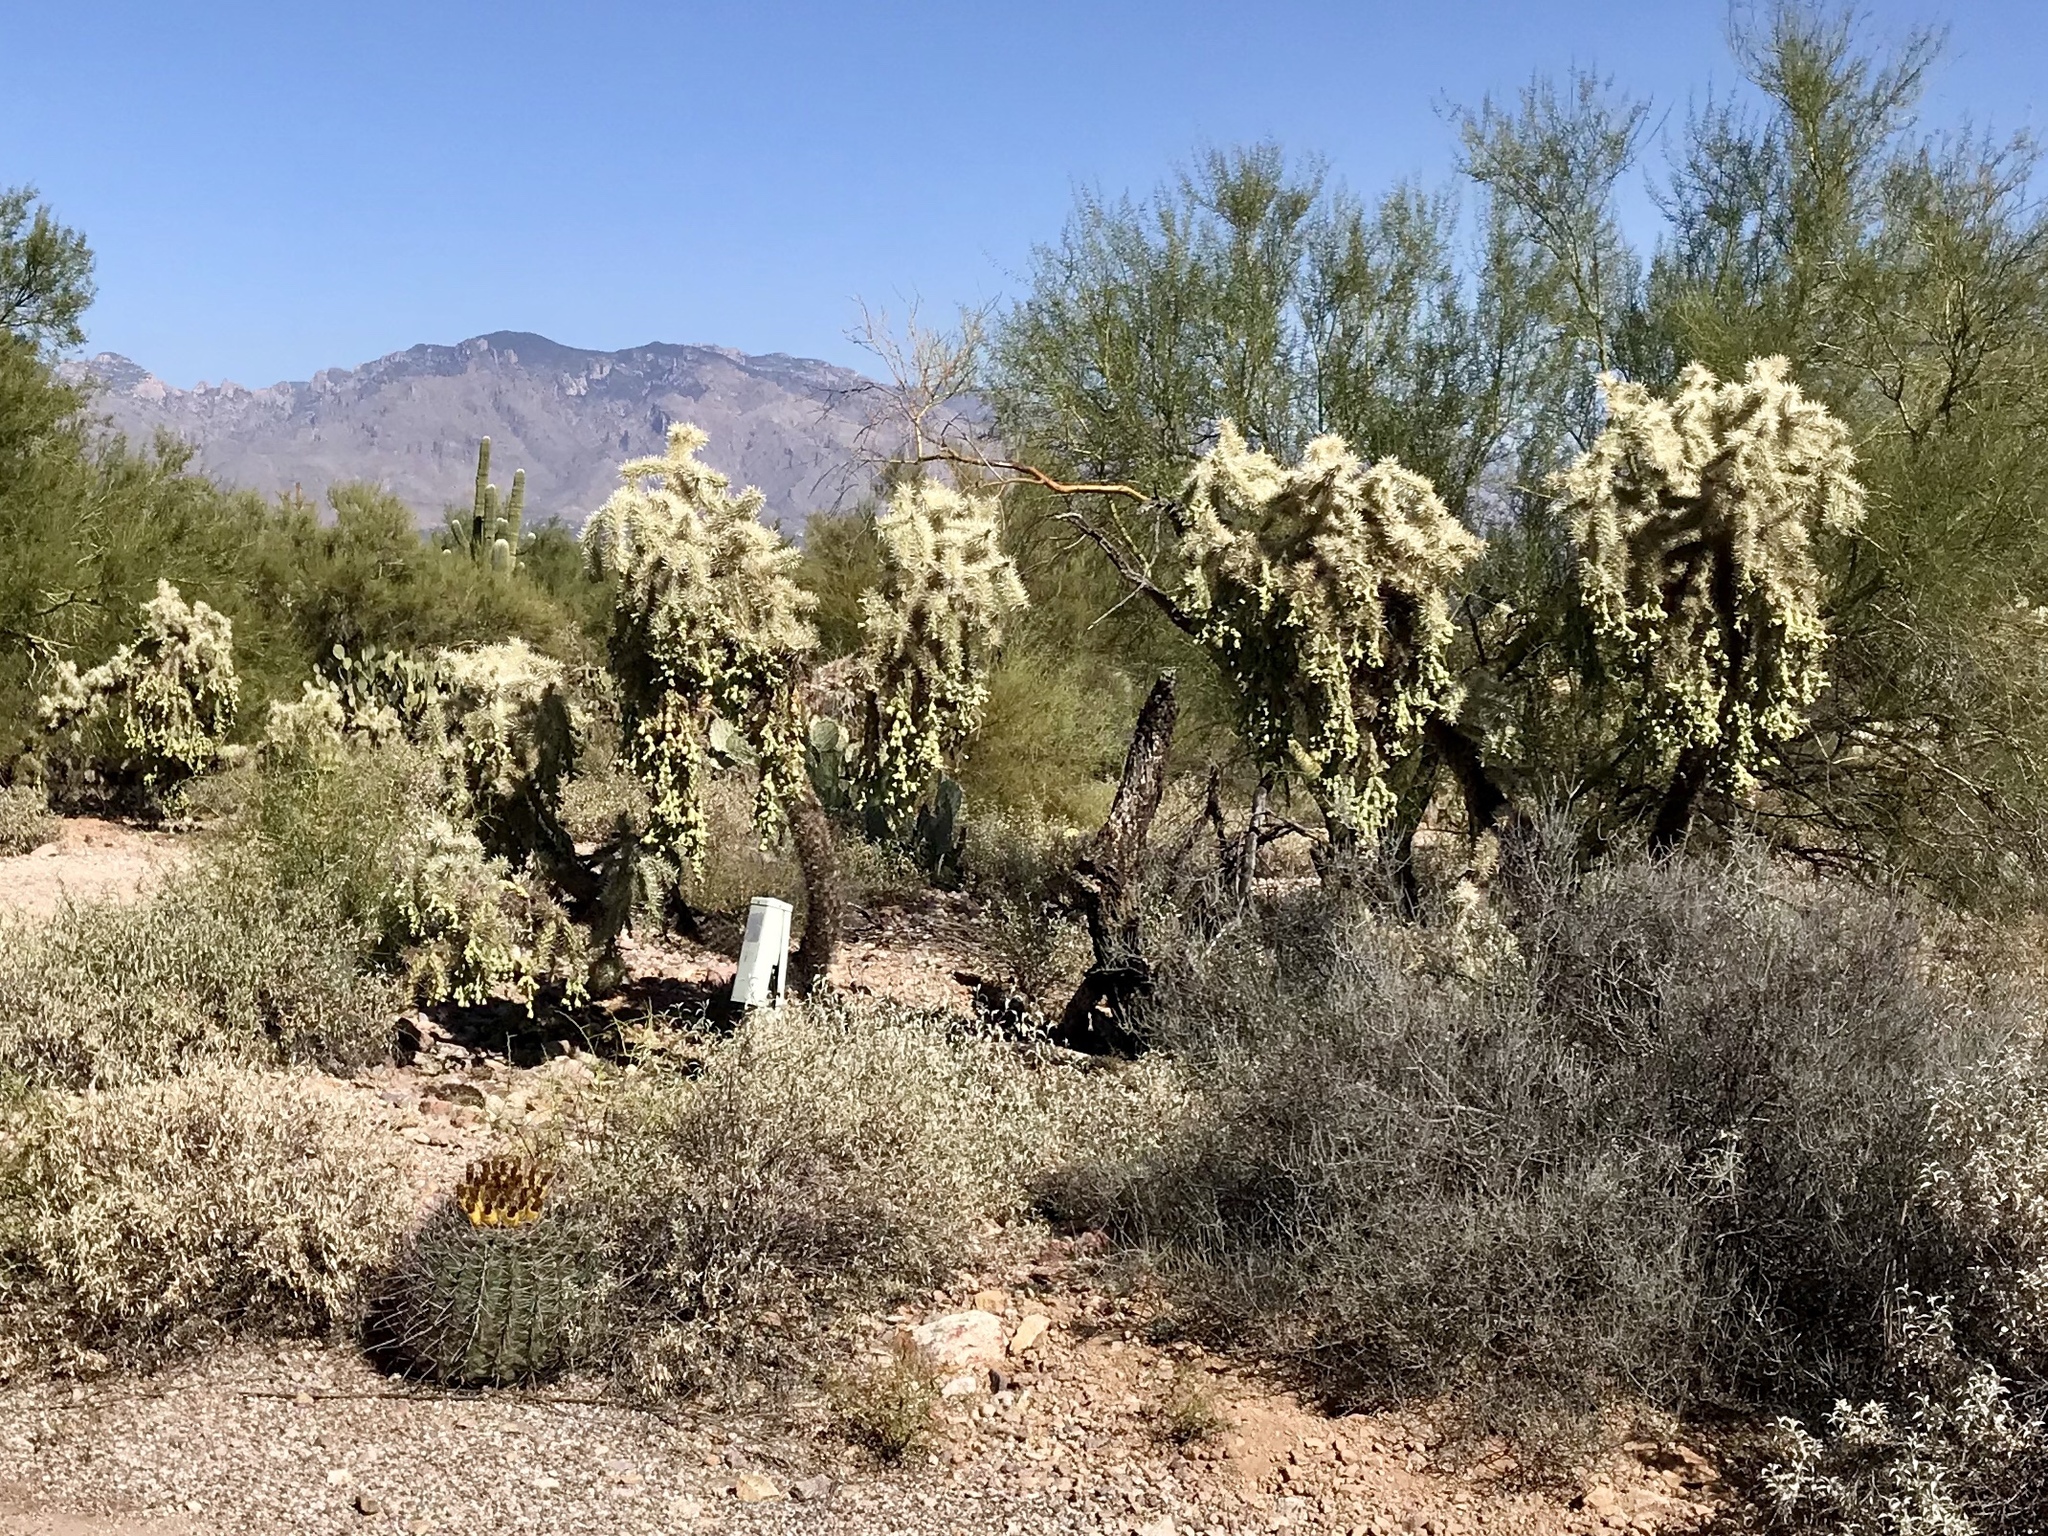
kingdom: Plantae
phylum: Tracheophyta
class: Magnoliopsida
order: Caryophyllales
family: Cactaceae
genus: Cylindropuntia
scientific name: Cylindropuntia fulgida
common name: Jumping cholla
